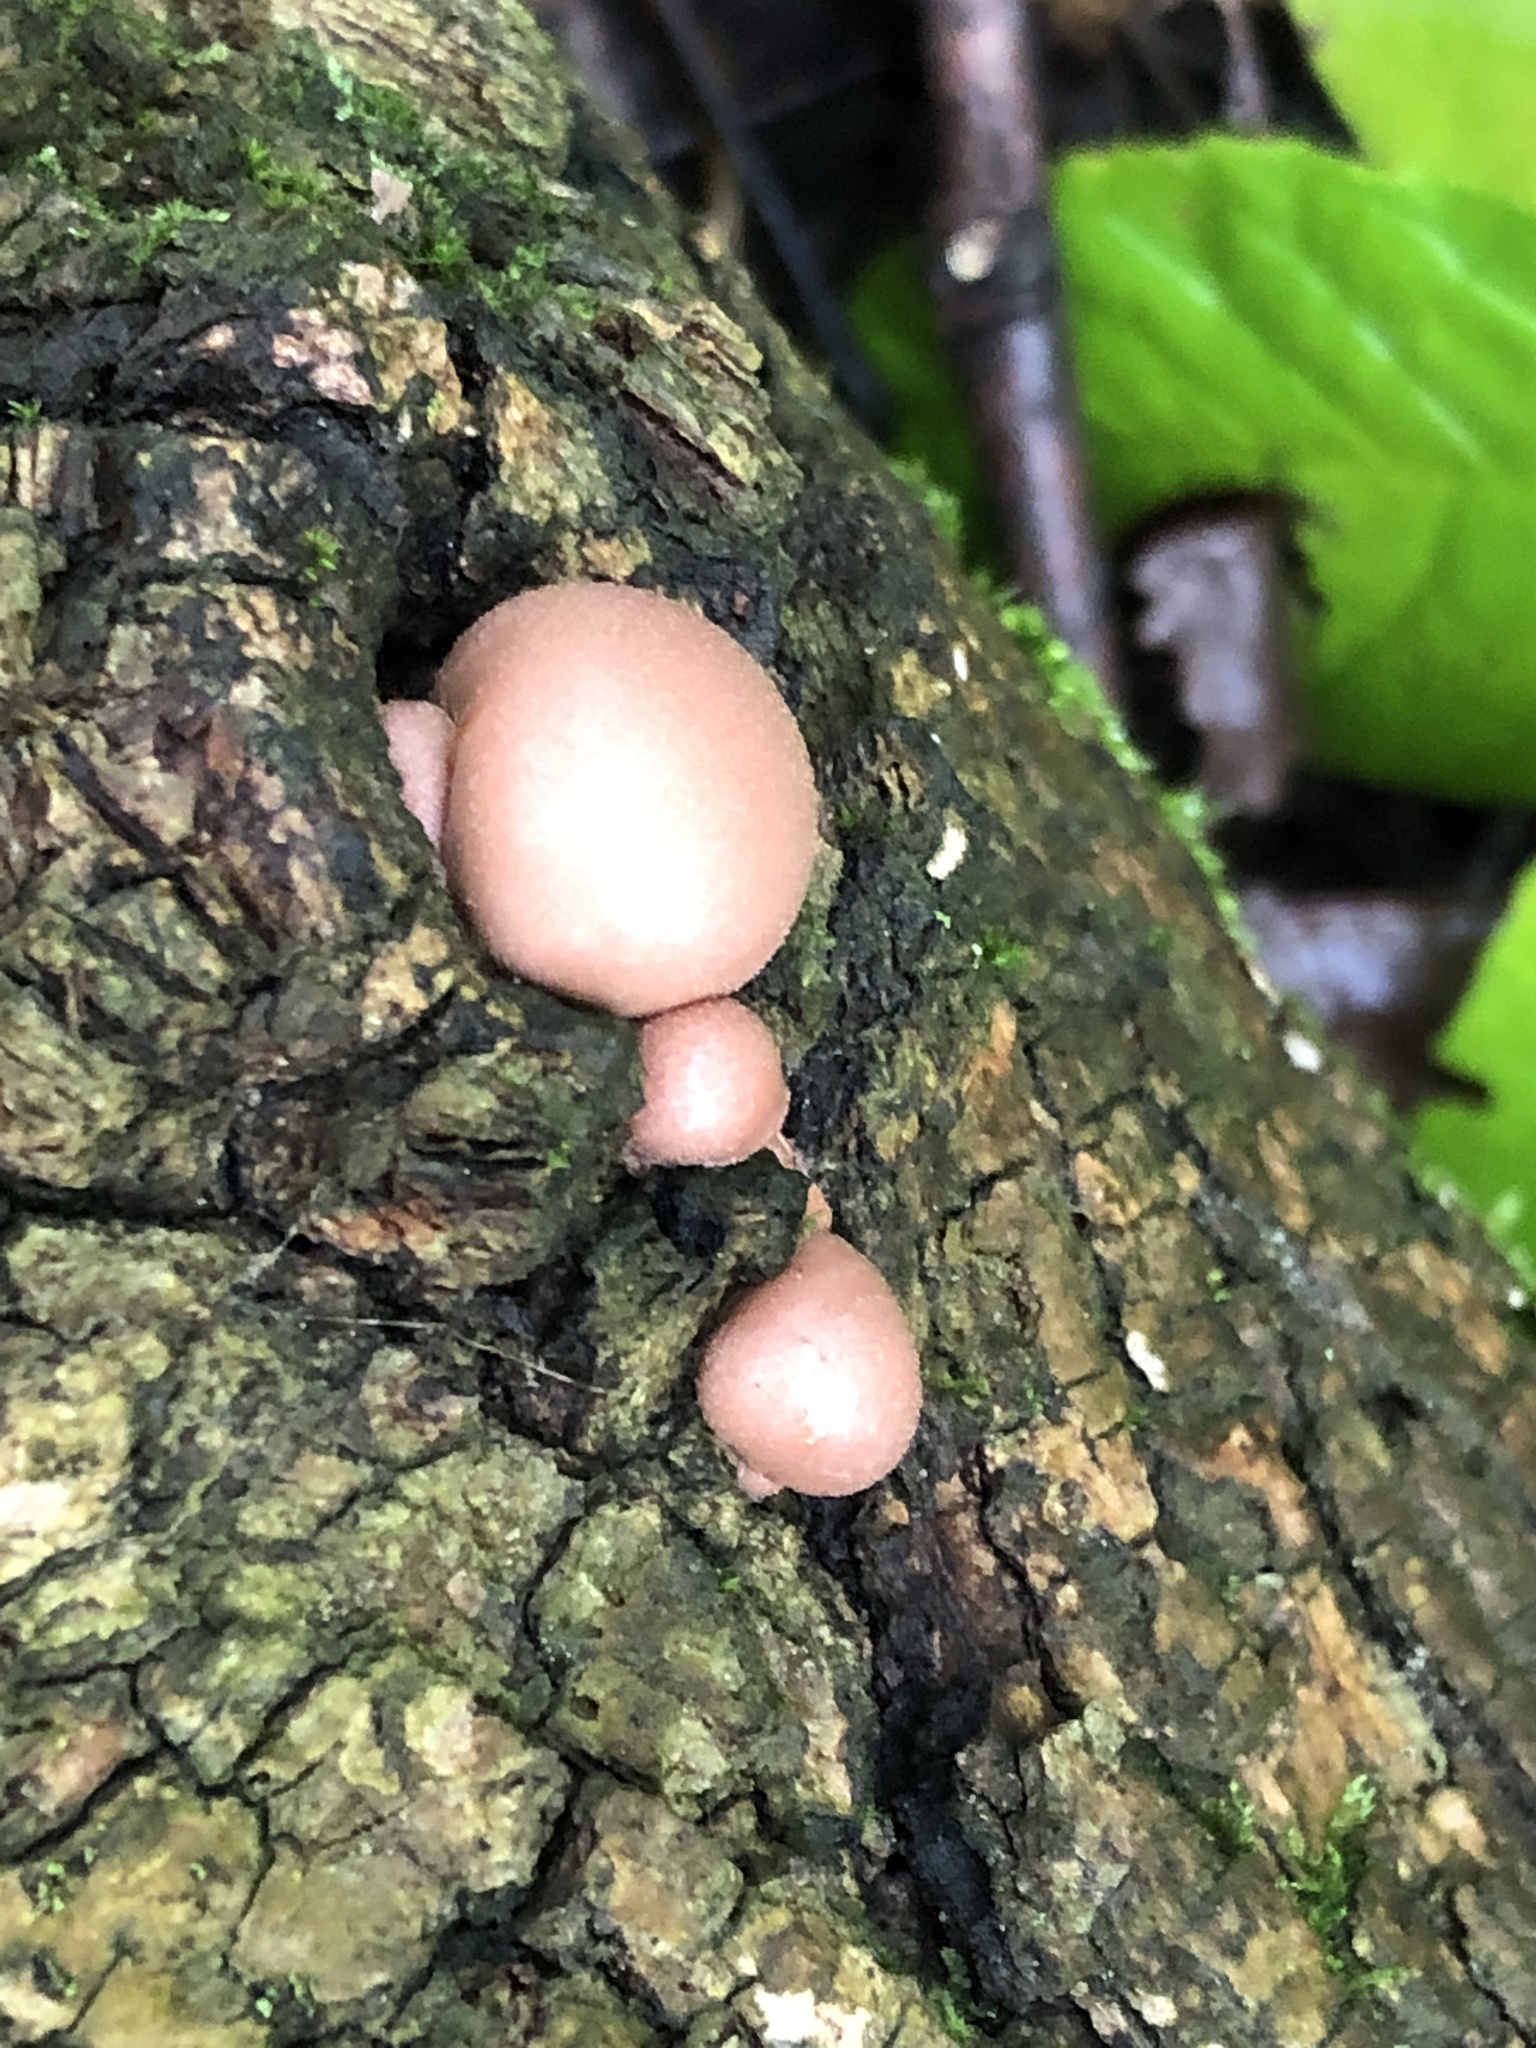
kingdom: Protozoa
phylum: Mycetozoa
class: Myxomycetes
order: Cribrariales
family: Tubiferaceae
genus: Lycogala
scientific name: Lycogala epidendrum
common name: Wolf's milk
